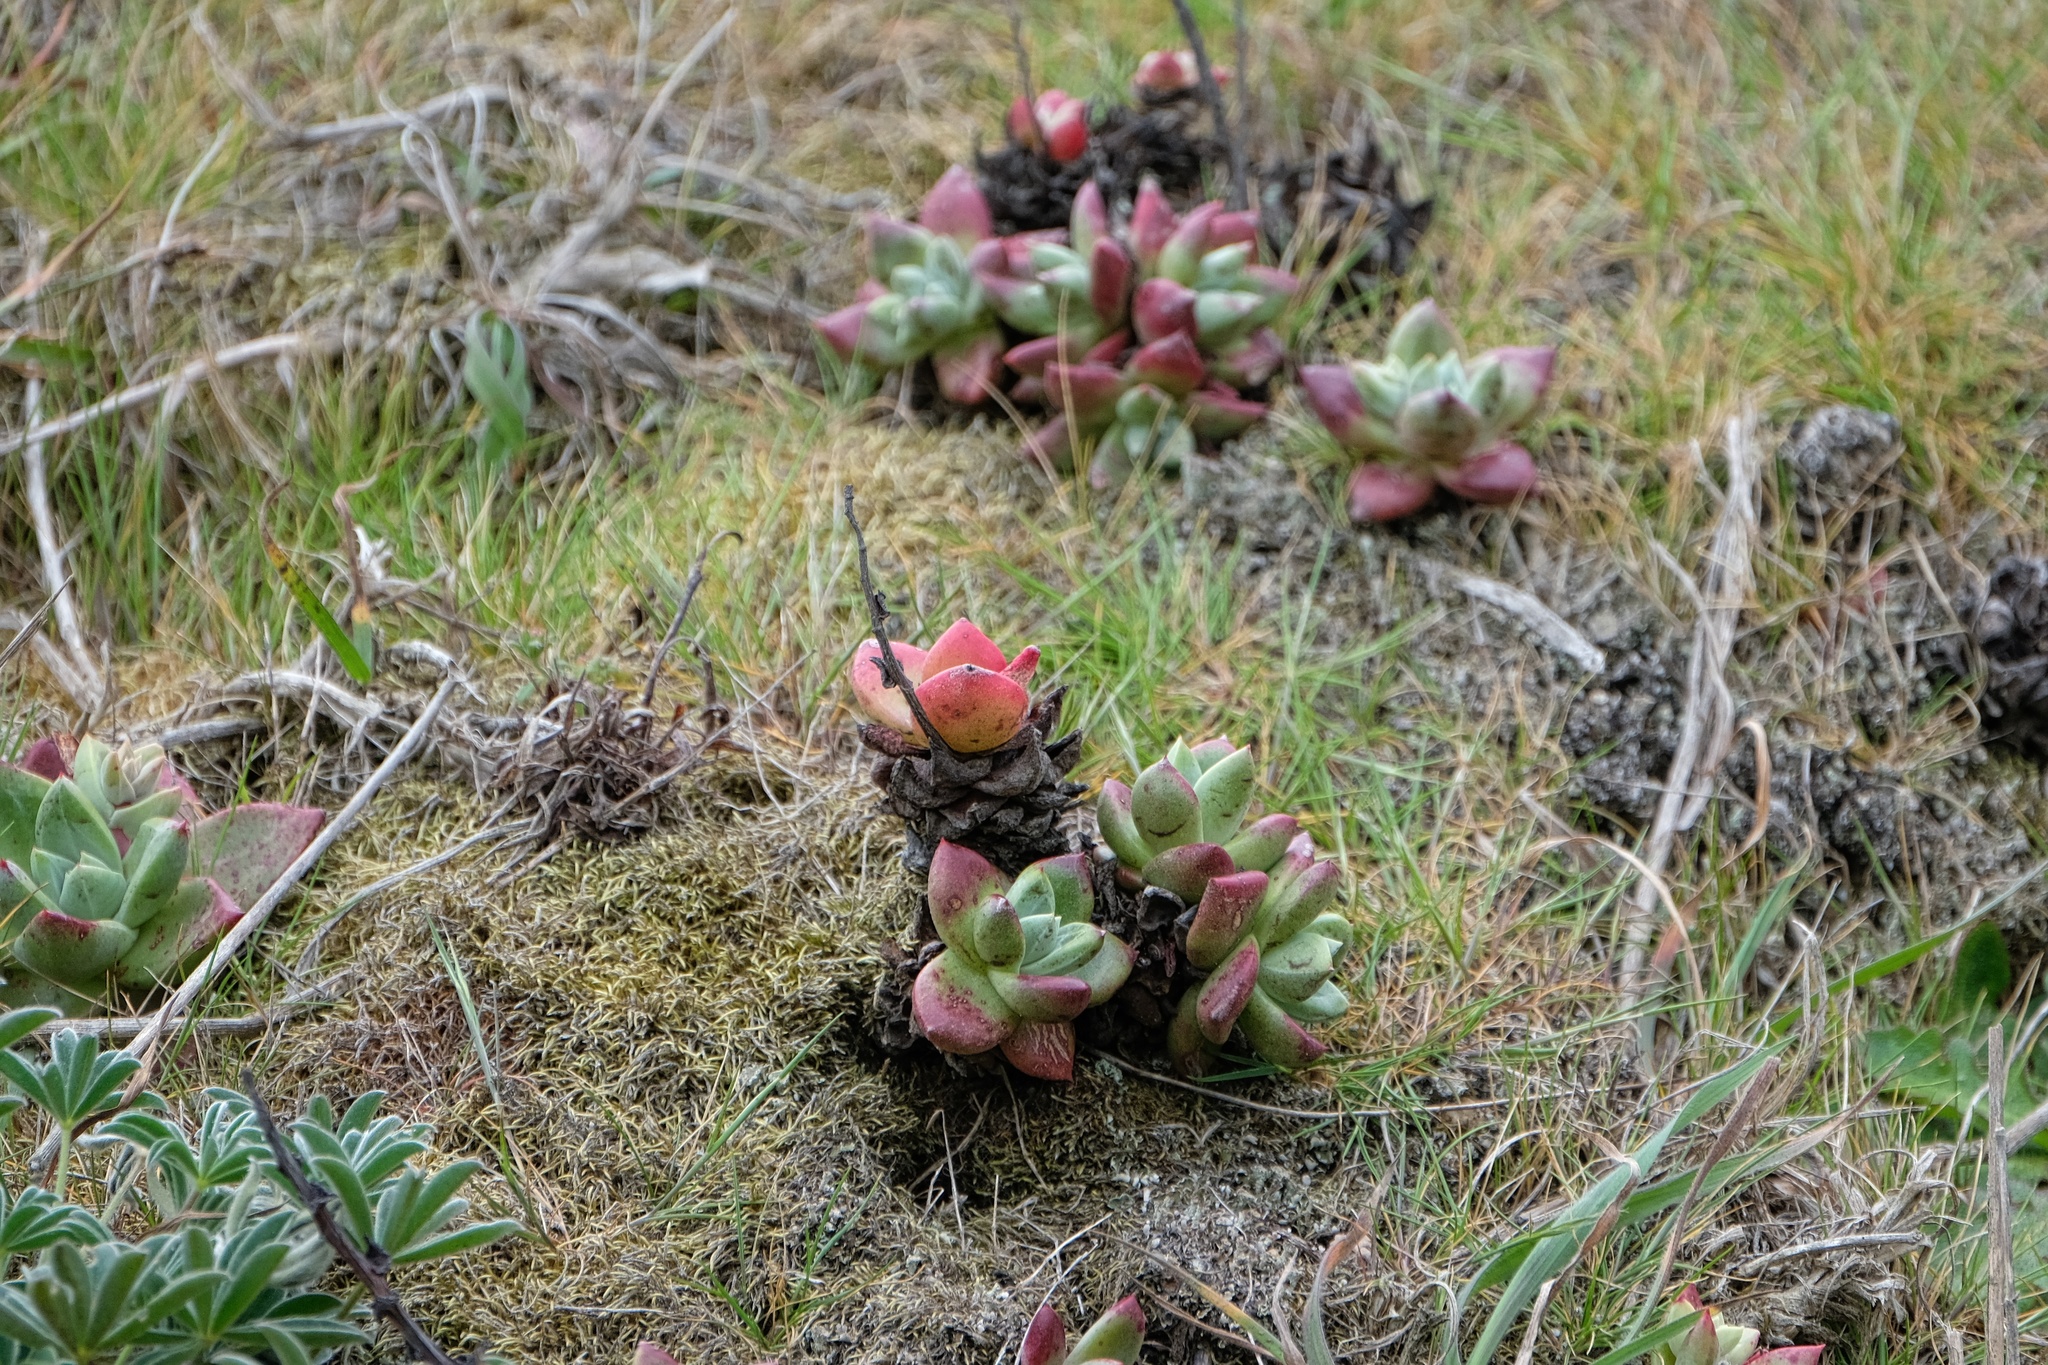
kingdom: Plantae
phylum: Tracheophyta
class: Magnoliopsida
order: Saxifragales
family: Crassulaceae
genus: Dudleya
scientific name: Dudleya farinosa
